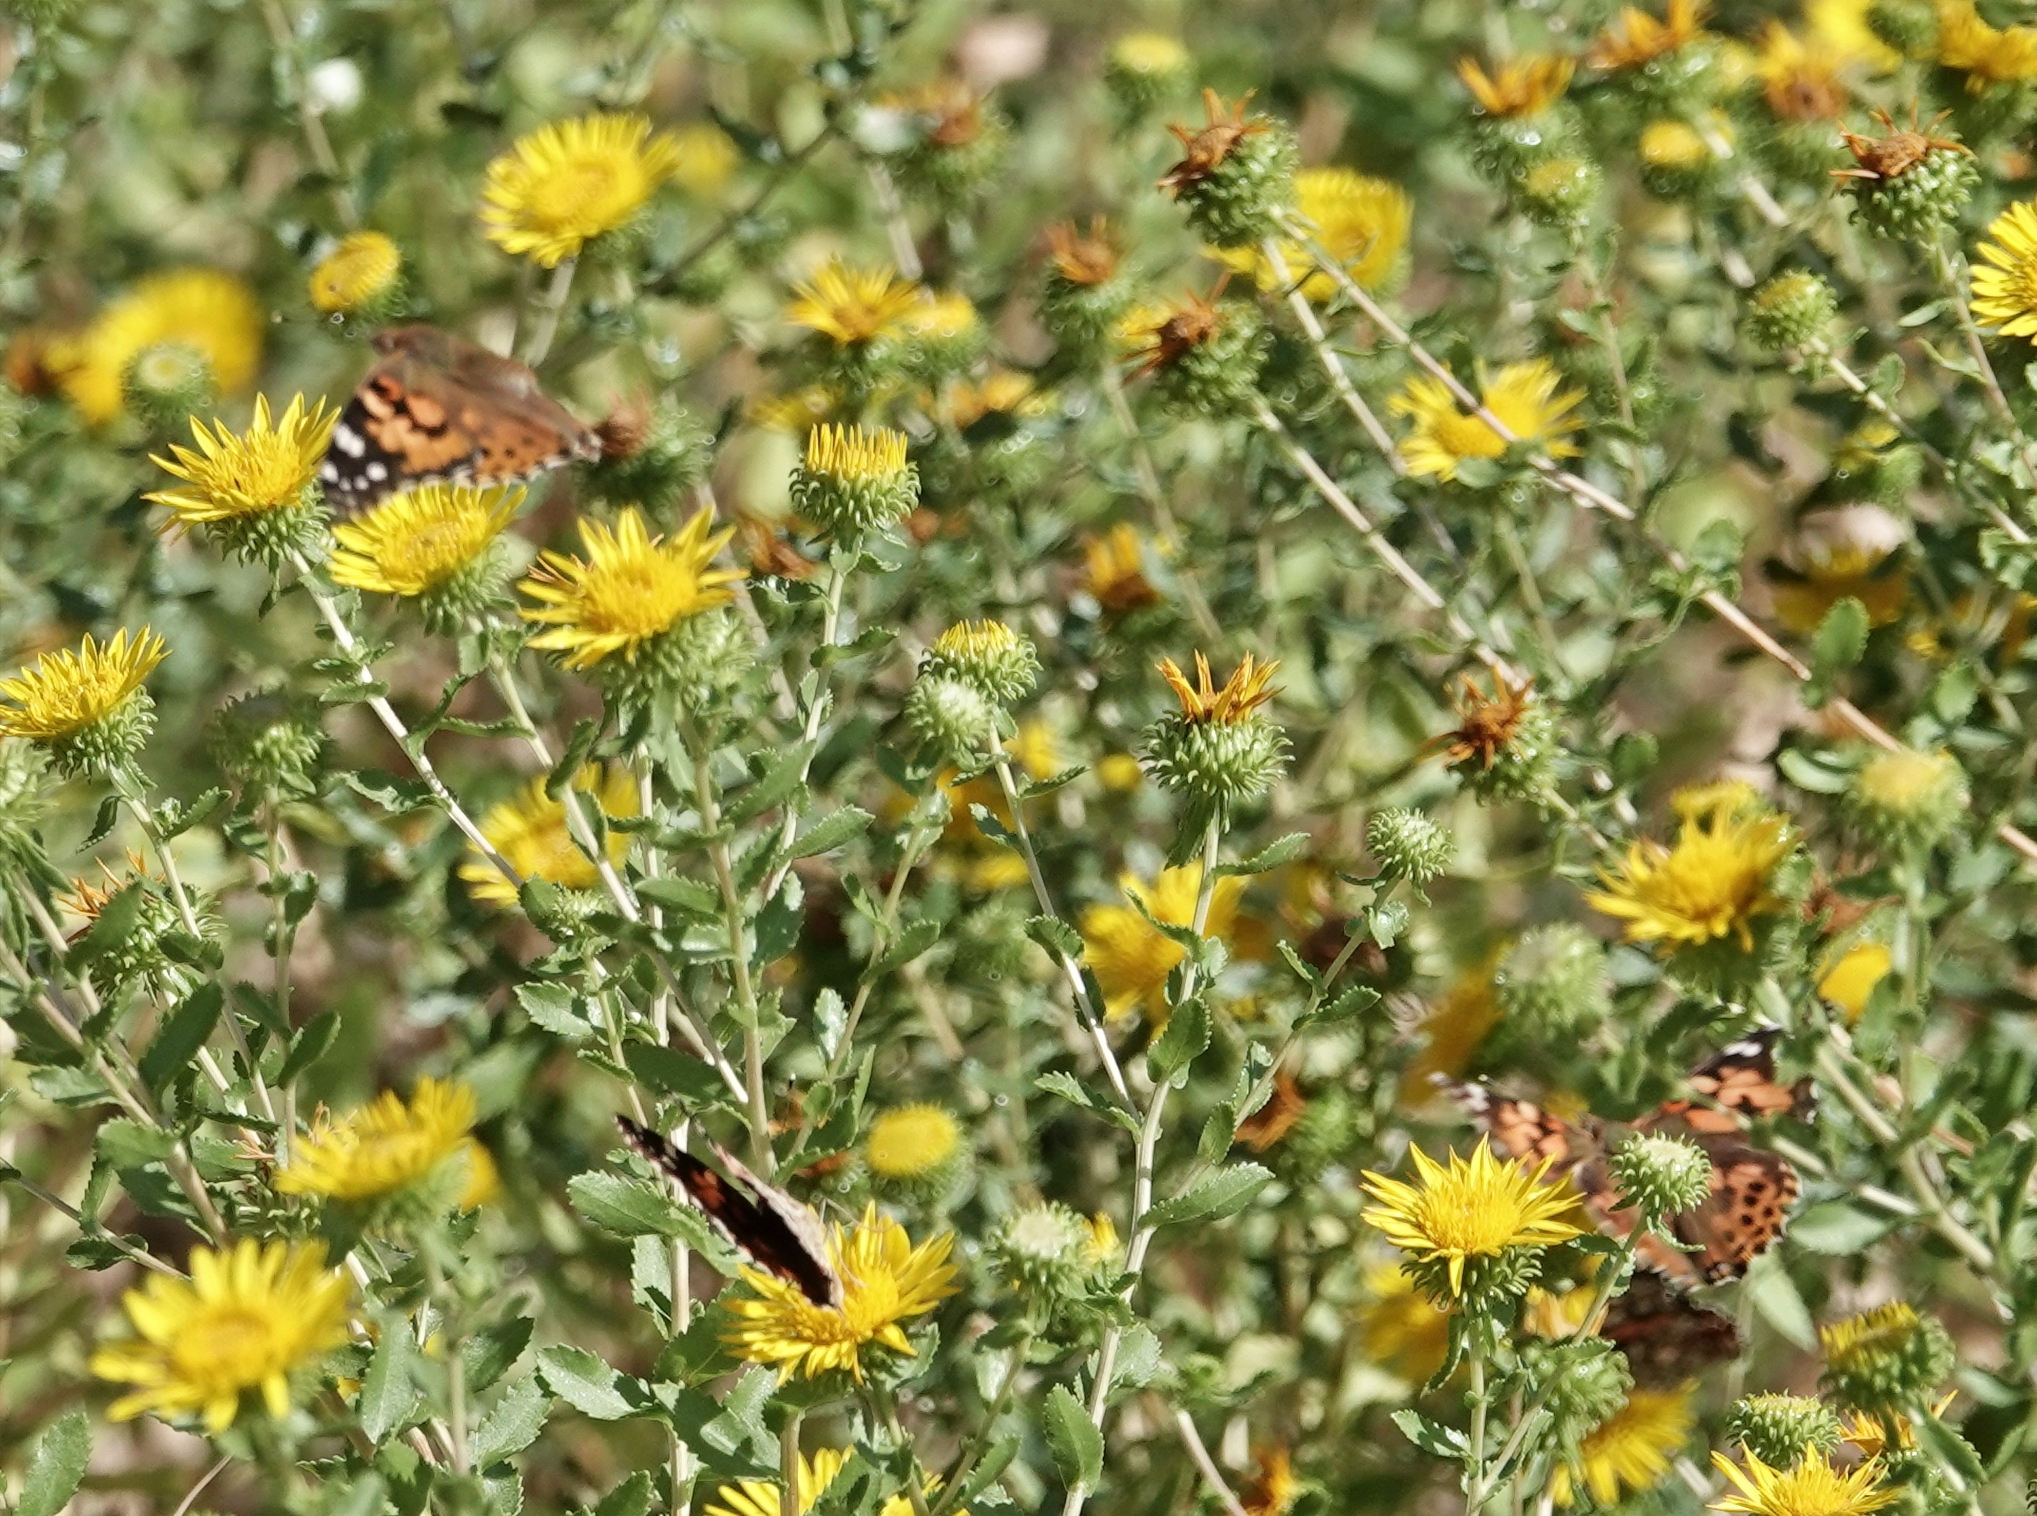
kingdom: Animalia
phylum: Arthropoda
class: Insecta
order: Lepidoptera
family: Nymphalidae
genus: Vanessa
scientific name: Vanessa cardui
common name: Painted lady
